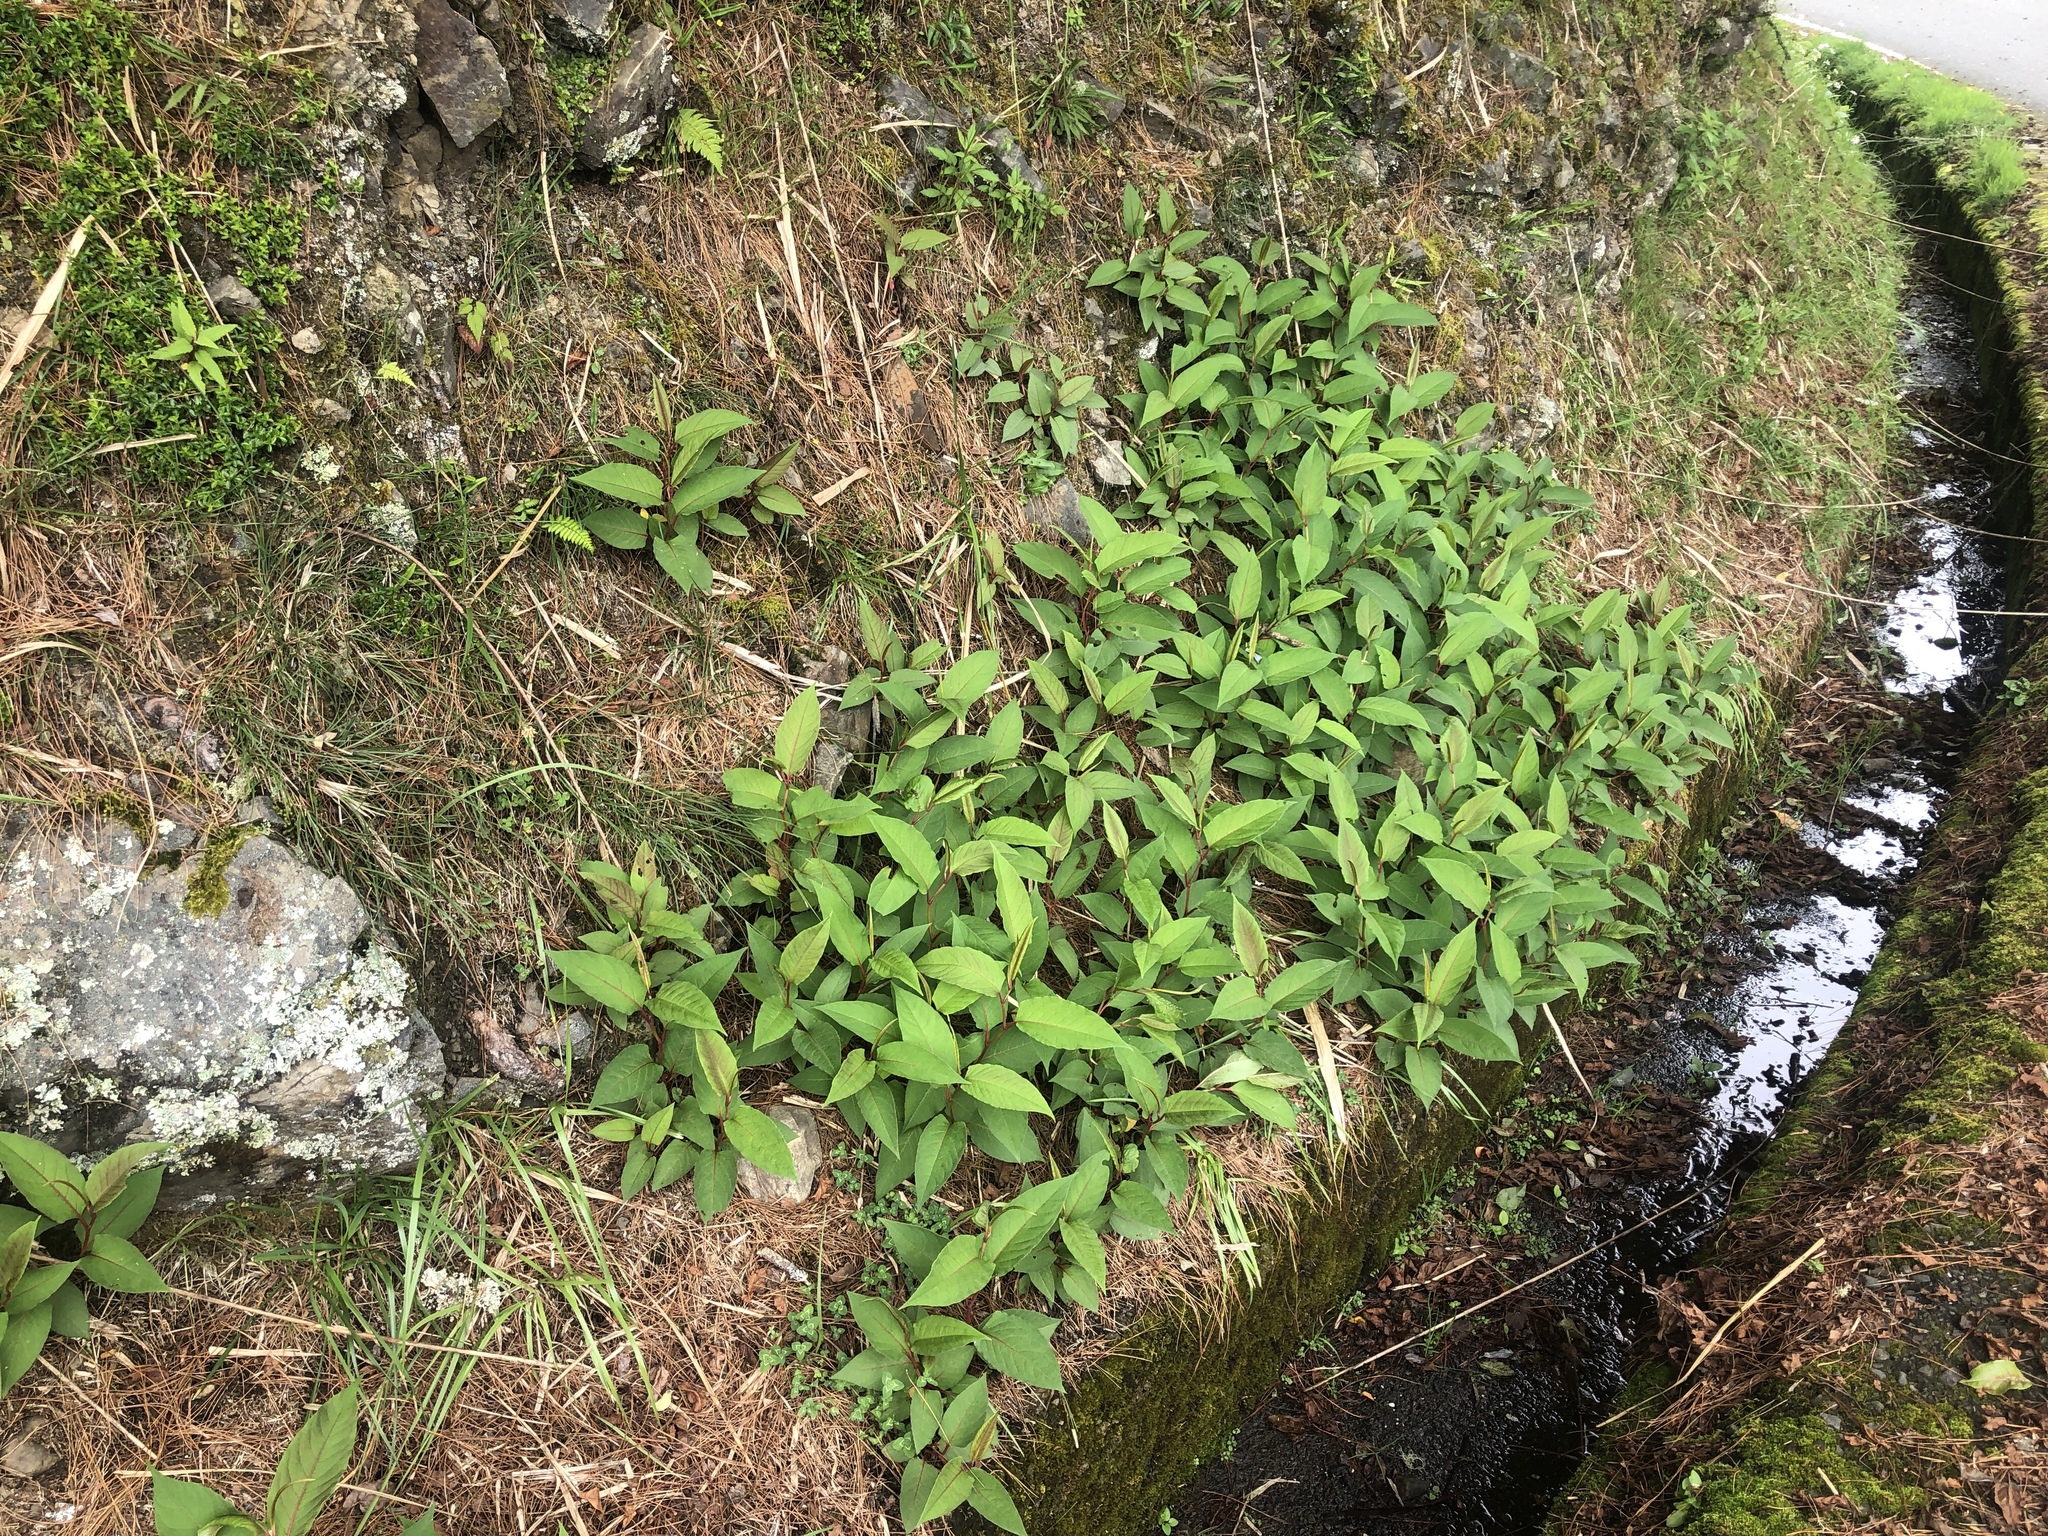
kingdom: Plantae
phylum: Tracheophyta
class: Magnoliopsida
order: Caryophyllales
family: Polygonaceae
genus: Reynoutria
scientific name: Reynoutria japonica
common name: Japanese knotweed
